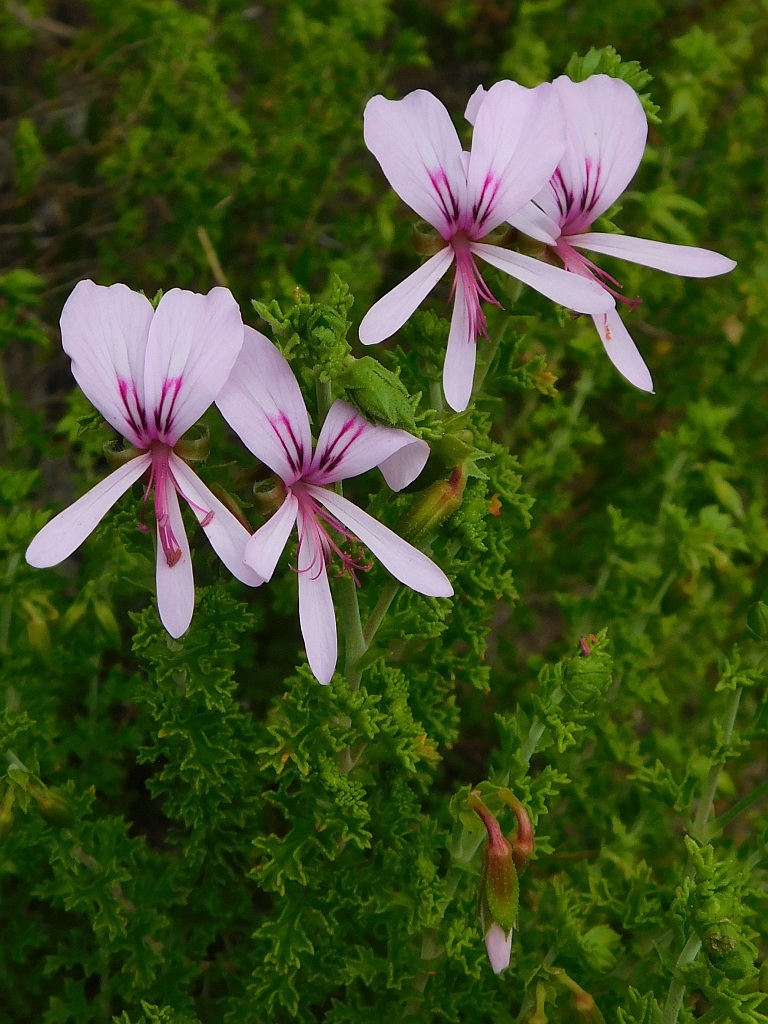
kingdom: Plantae
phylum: Tracheophyta
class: Magnoliopsida
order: Geraniales
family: Geraniaceae
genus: Pelargonium
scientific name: Pelargonium crispum
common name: Crisped-leaf pelargonium
